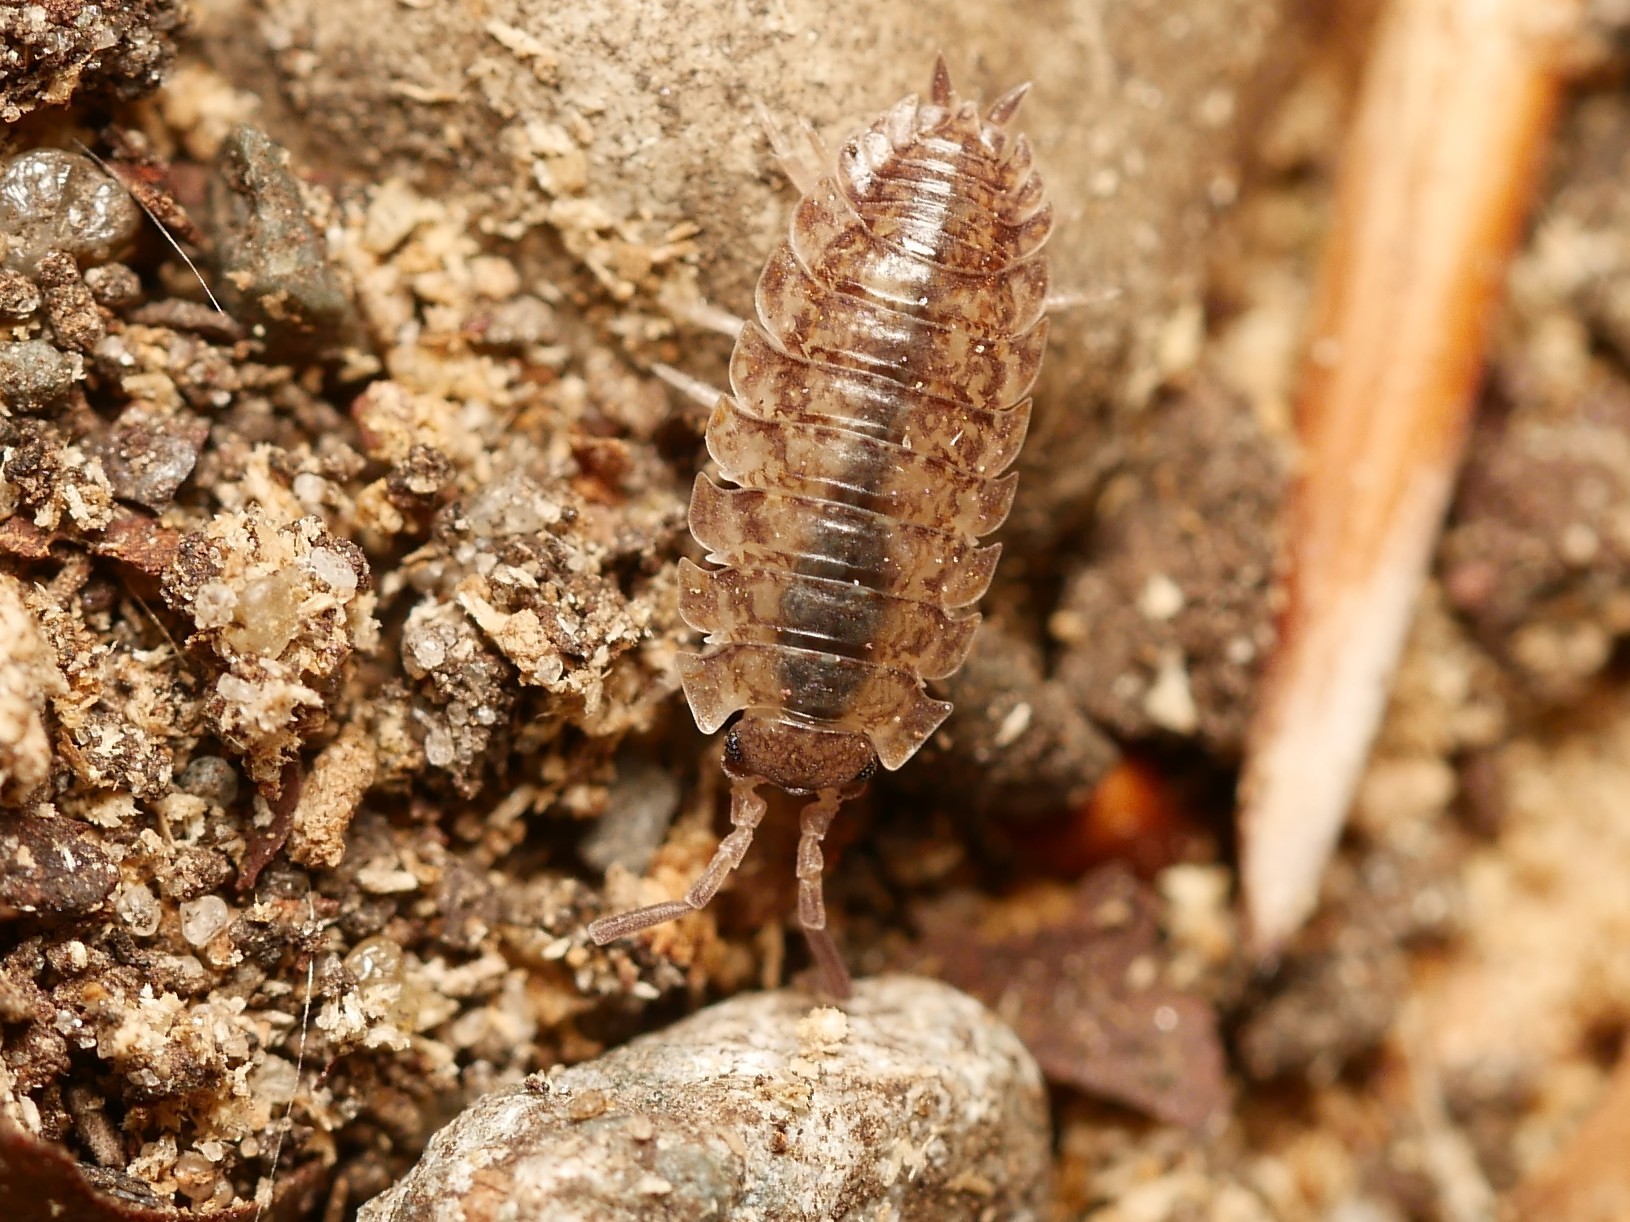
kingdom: Animalia
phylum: Arthropoda
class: Malacostraca
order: Isopoda
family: Porcellionidae
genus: Porcellio
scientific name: Porcellio scaber
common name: Common rough woodlouse
